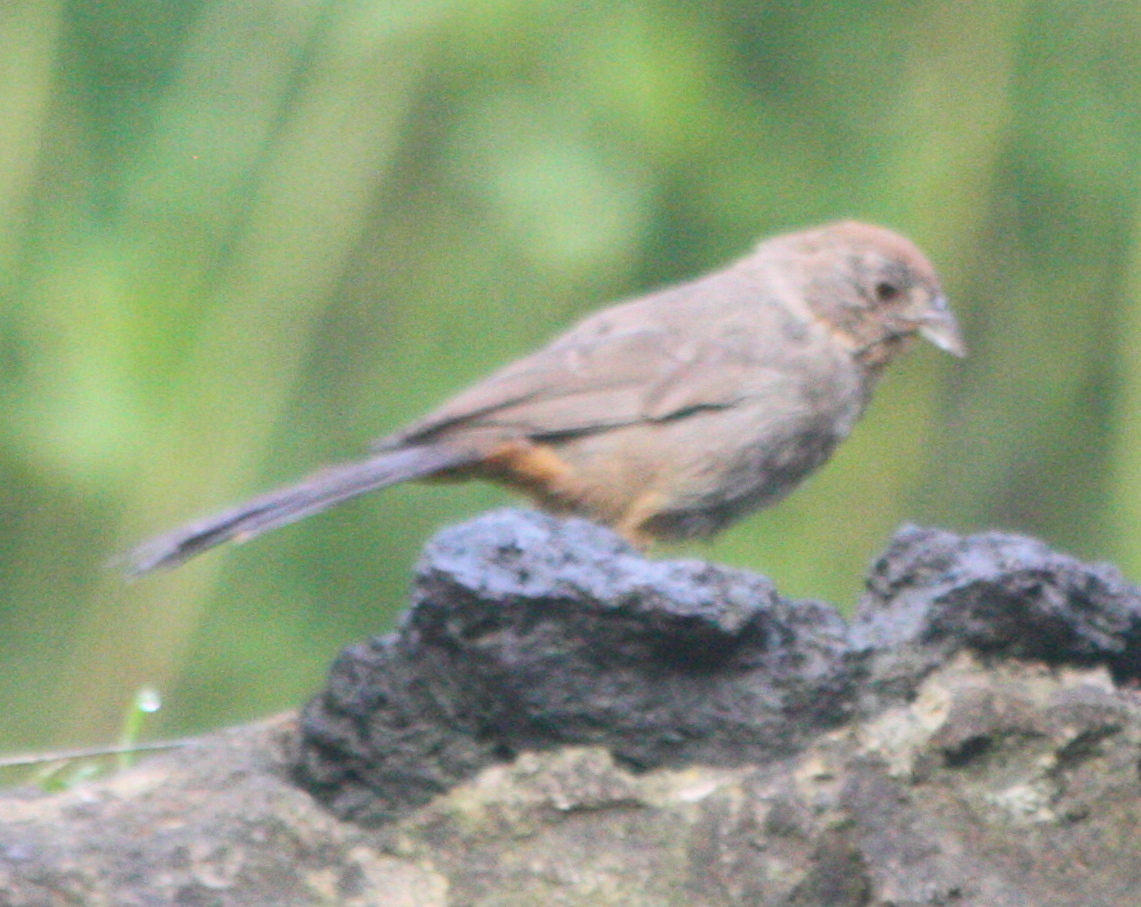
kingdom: Animalia
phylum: Chordata
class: Aves
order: Passeriformes
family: Passerellidae
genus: Melozone
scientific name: Melozone fusca
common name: Canyon towhee
